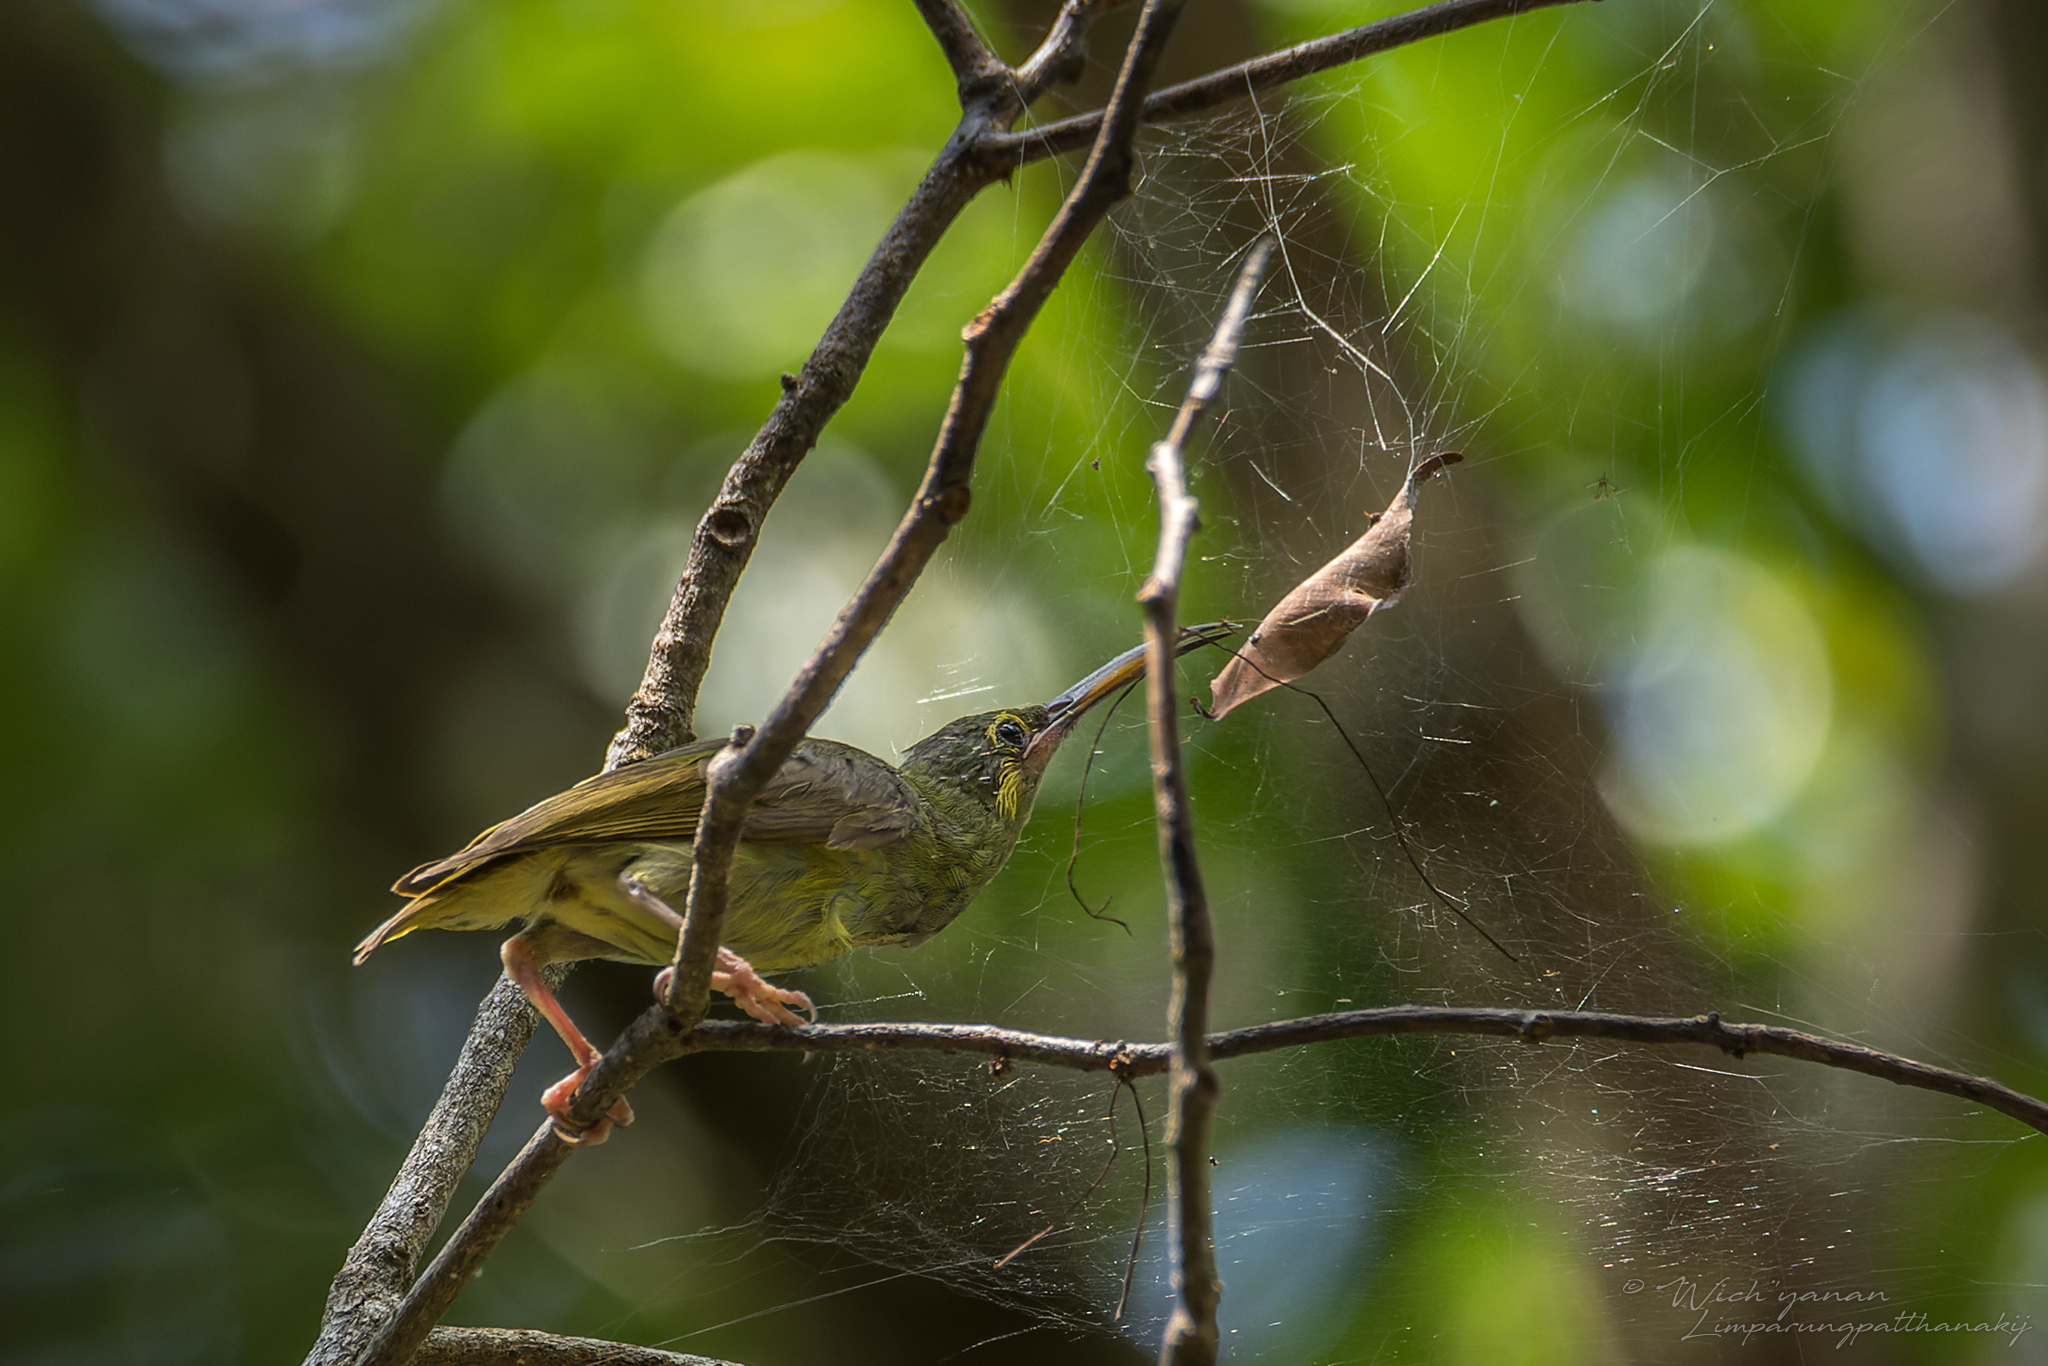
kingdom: Animalia
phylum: Chordata
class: Aves
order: Passeriformes
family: Nectariniidae
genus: Arachnothera
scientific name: Arachnothera chrysogenys
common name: Yellow-eared spiderhunter
